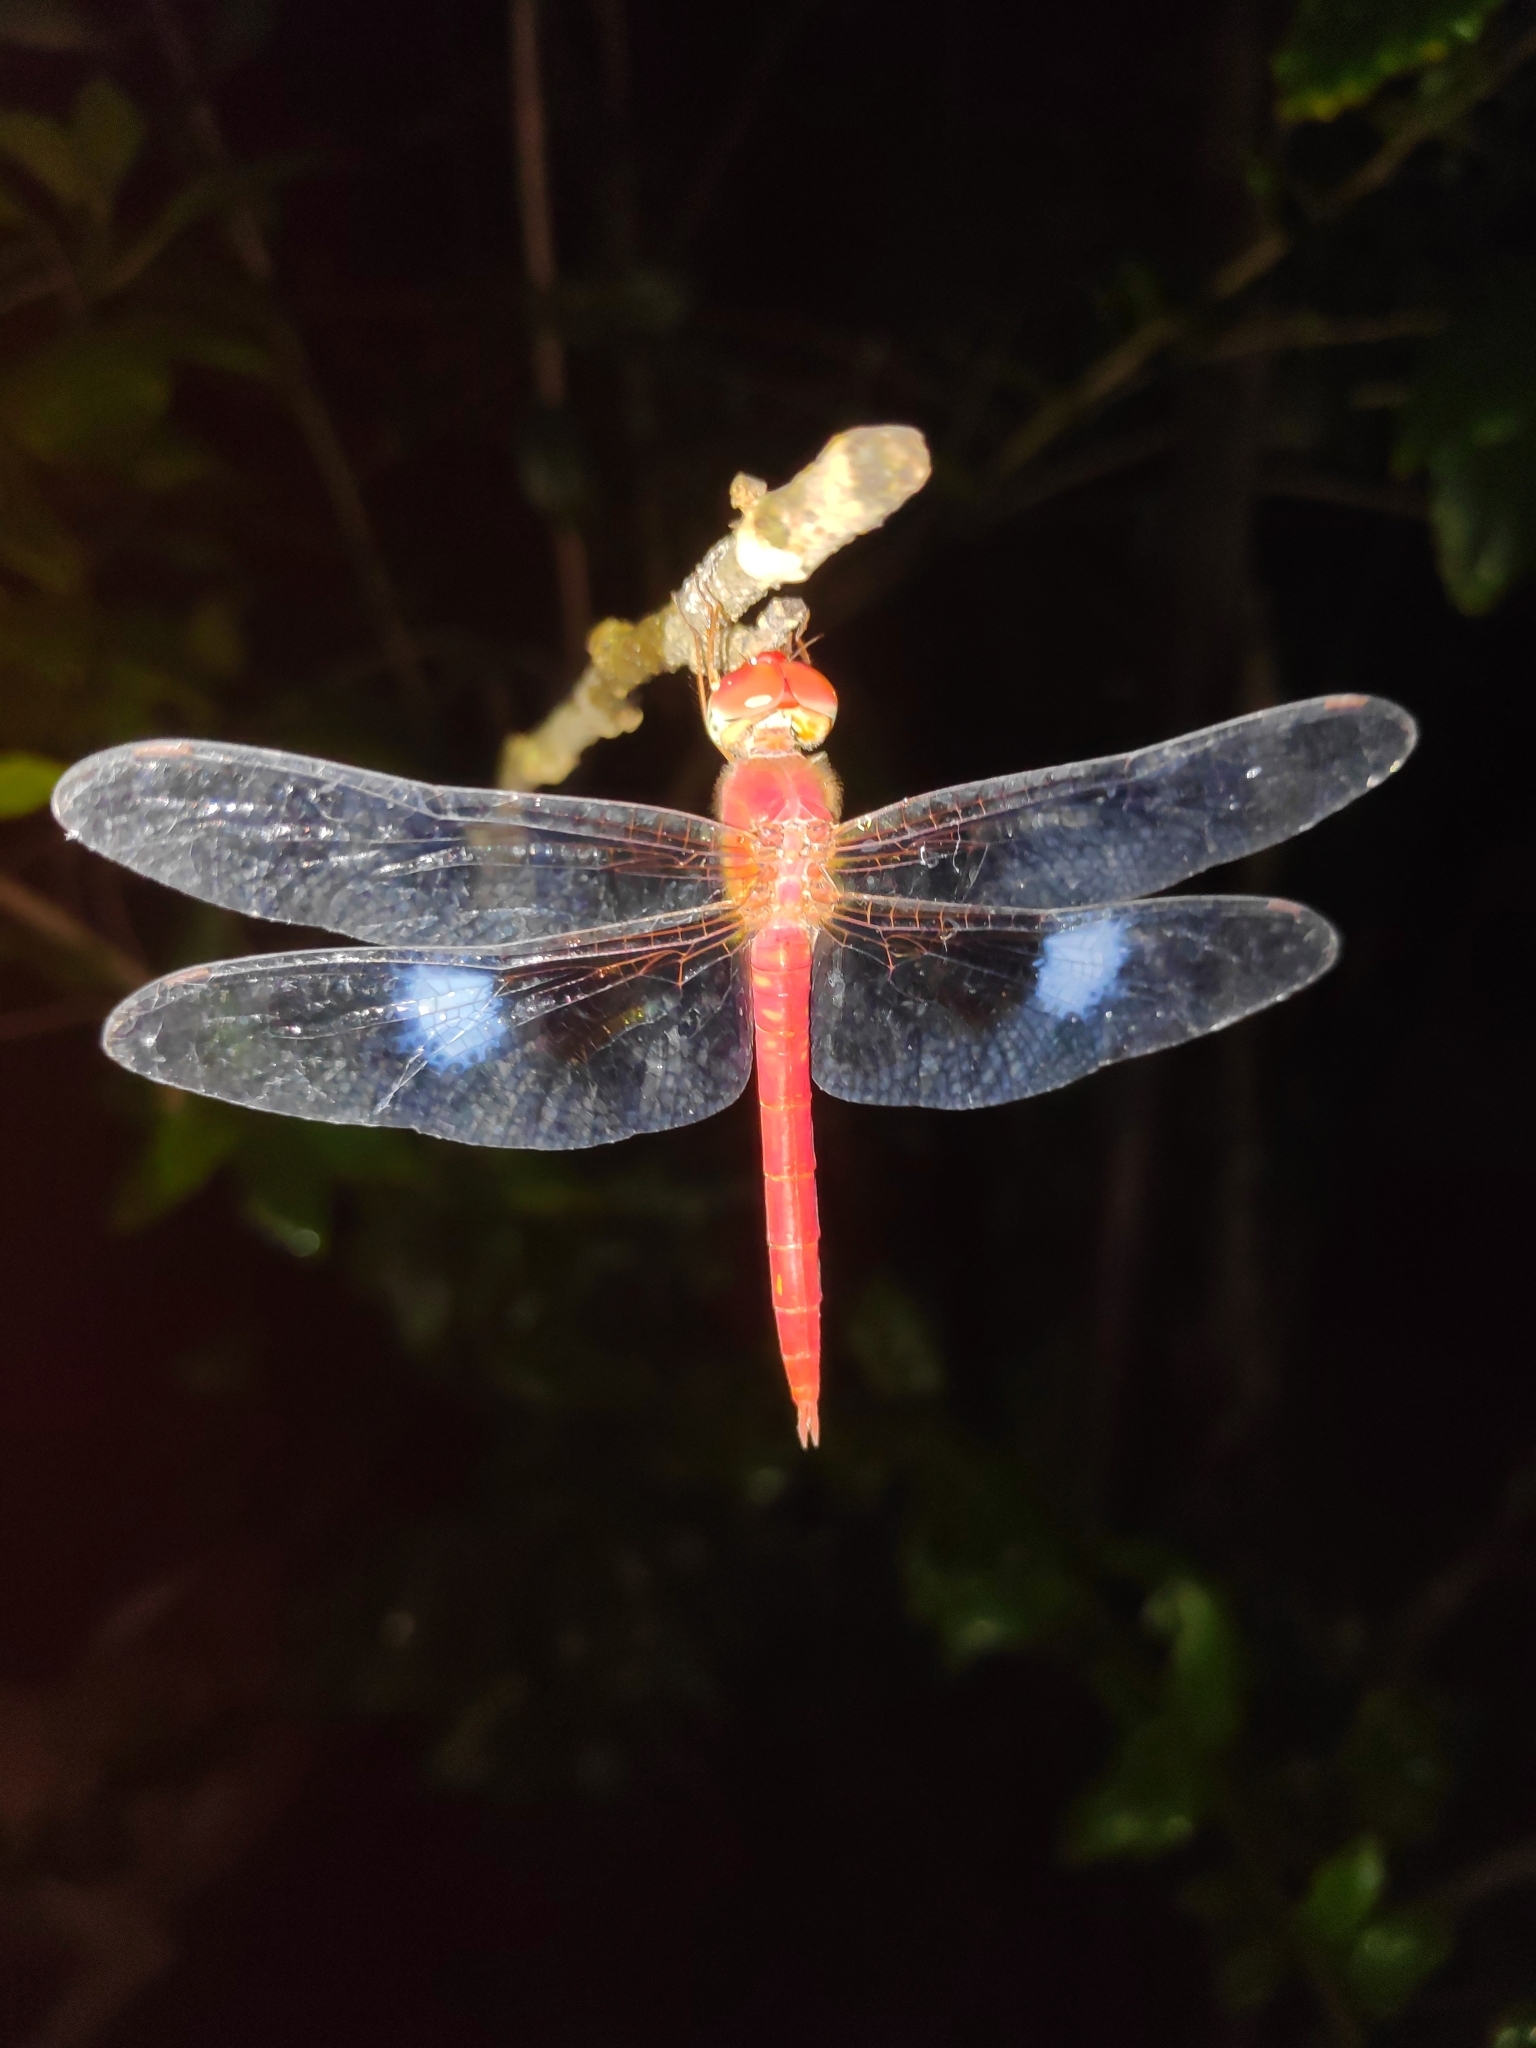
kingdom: Animalia
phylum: Arthropoda
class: Insecta
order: Odonata
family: Libellulidae
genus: Tholymis
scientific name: Tholymis tillarga
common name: Coral-tailed cloud wing
